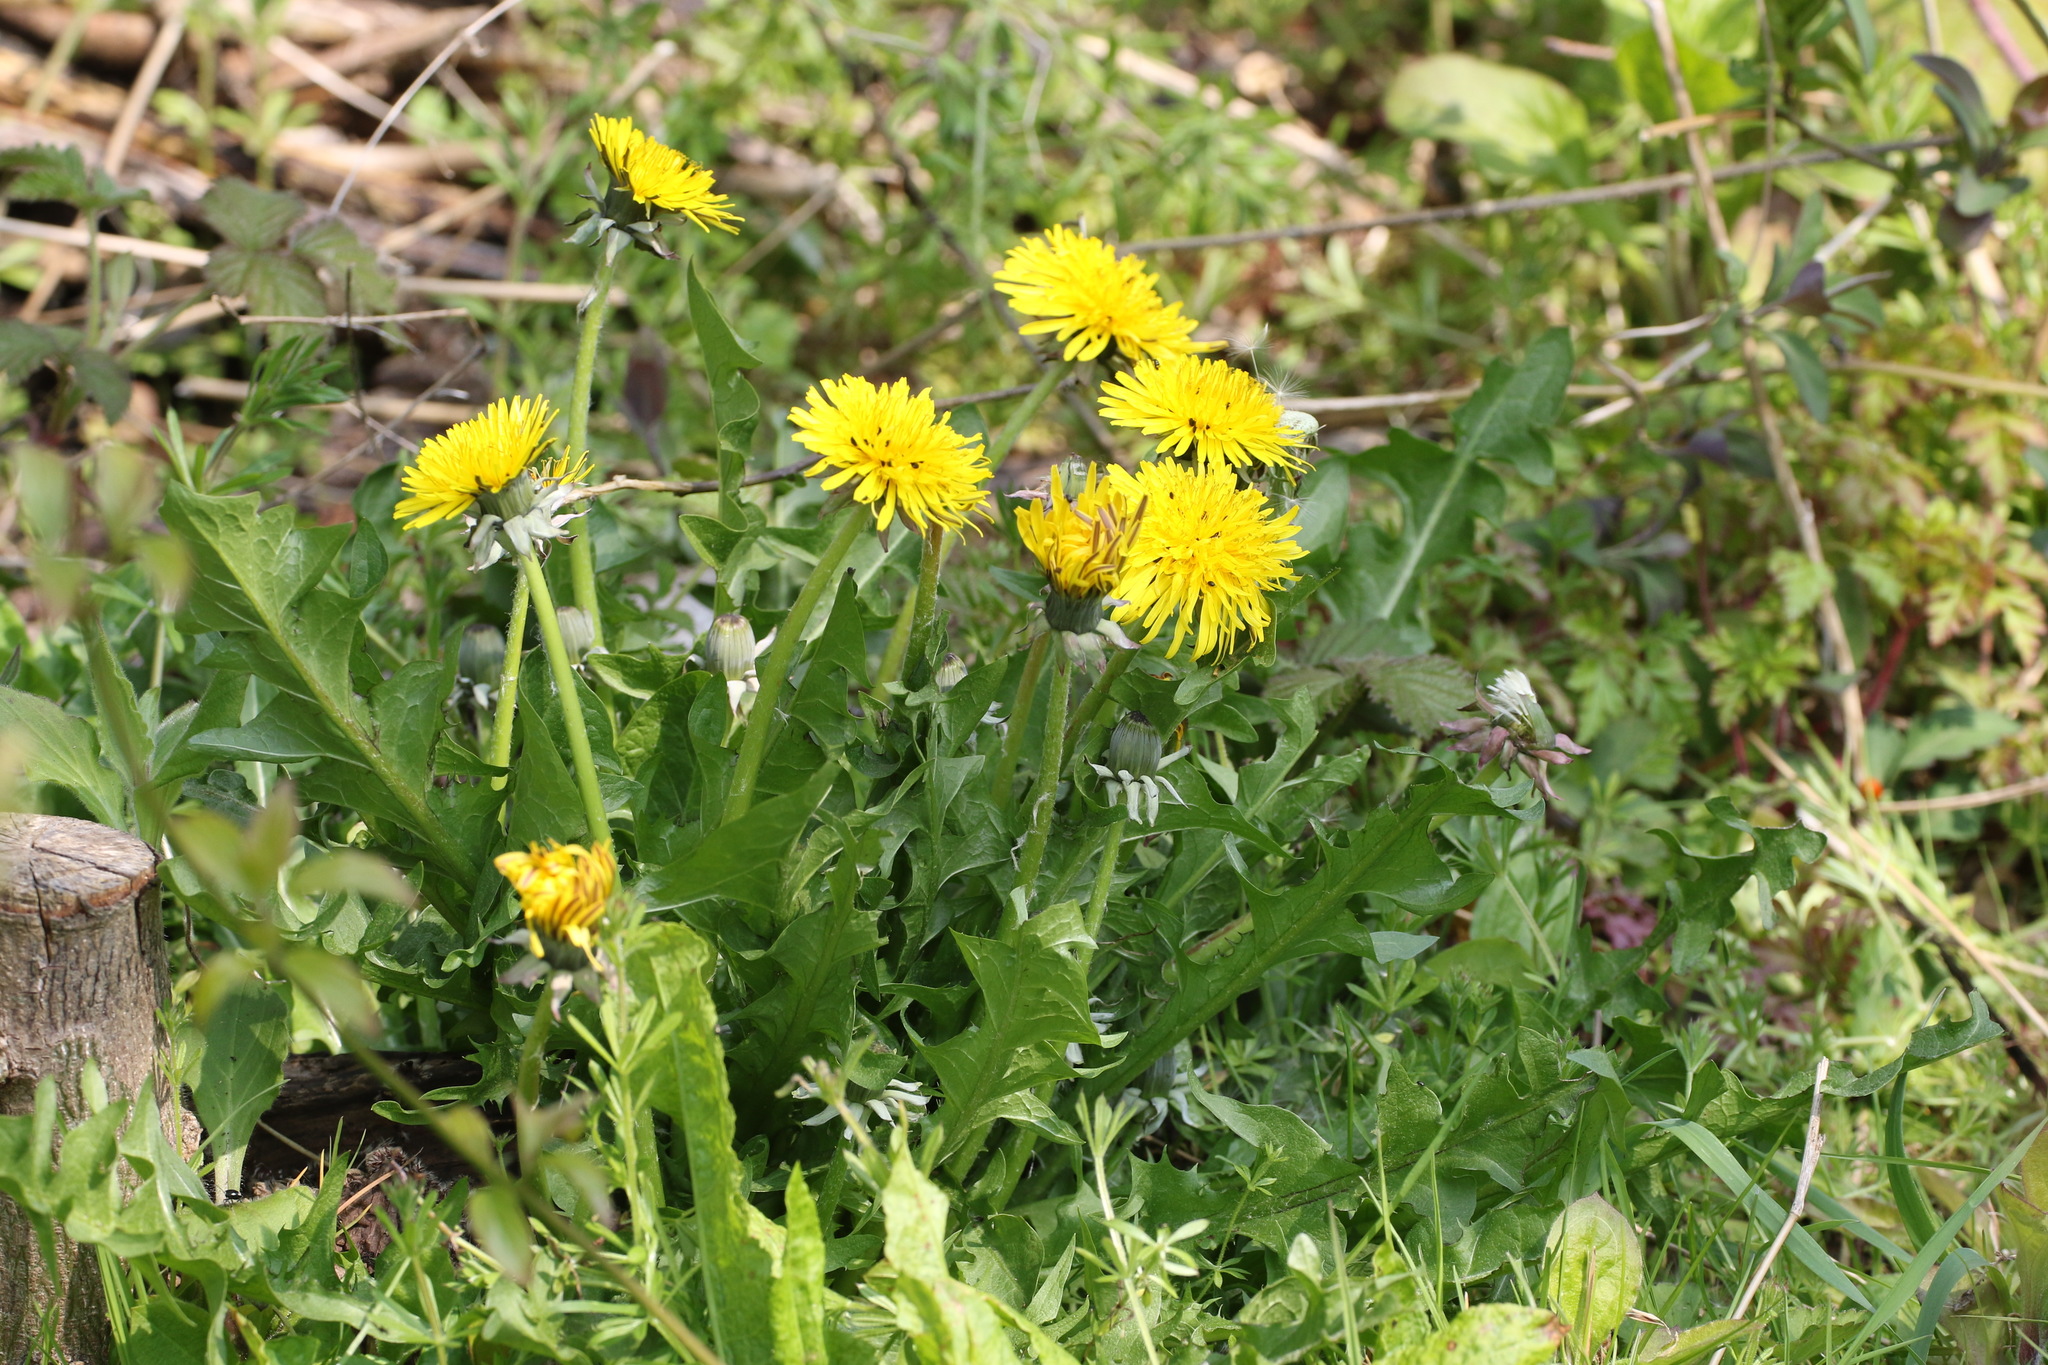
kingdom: Plantae
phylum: Tracheophyta
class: Magnoliopsida
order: Asterales
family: Asteraceae
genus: Taraxacum
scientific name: Taraxacum officinale
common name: Common dandelion
